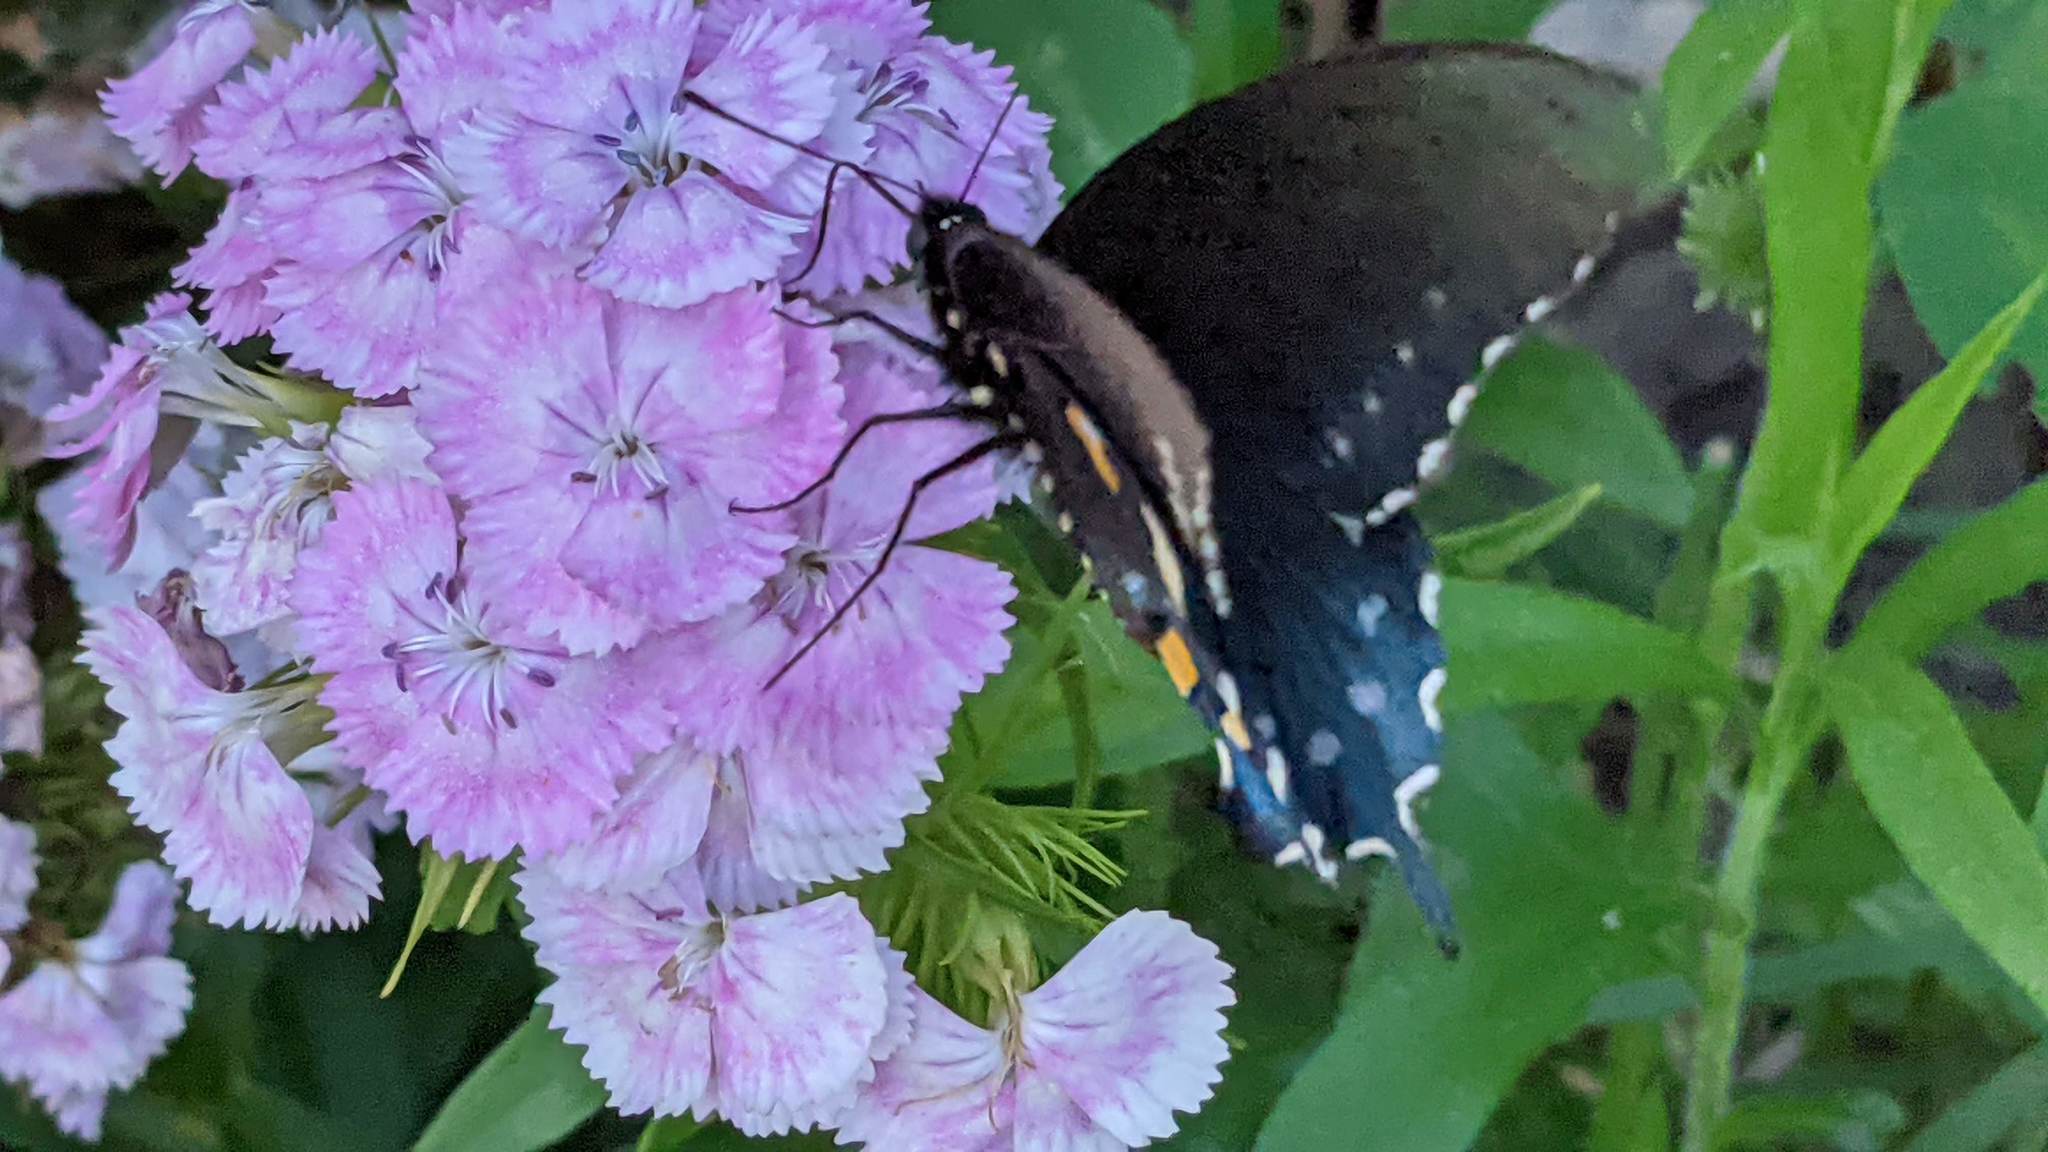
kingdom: Animalia
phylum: Arthropoda
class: Insecta
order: Lepidoptera
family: Papilionidae
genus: Battus
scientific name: Battus philenor
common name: Pipevine swallowtail
